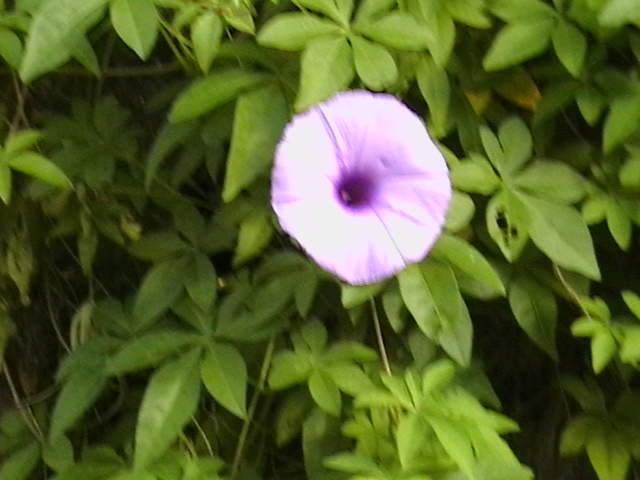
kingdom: Plantae
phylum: Tracheophyta
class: Magnoliopsida
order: Solanales
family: Convolvulaceae
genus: Ipomoea
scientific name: Ipomoea cairica
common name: Mile a minute vine
